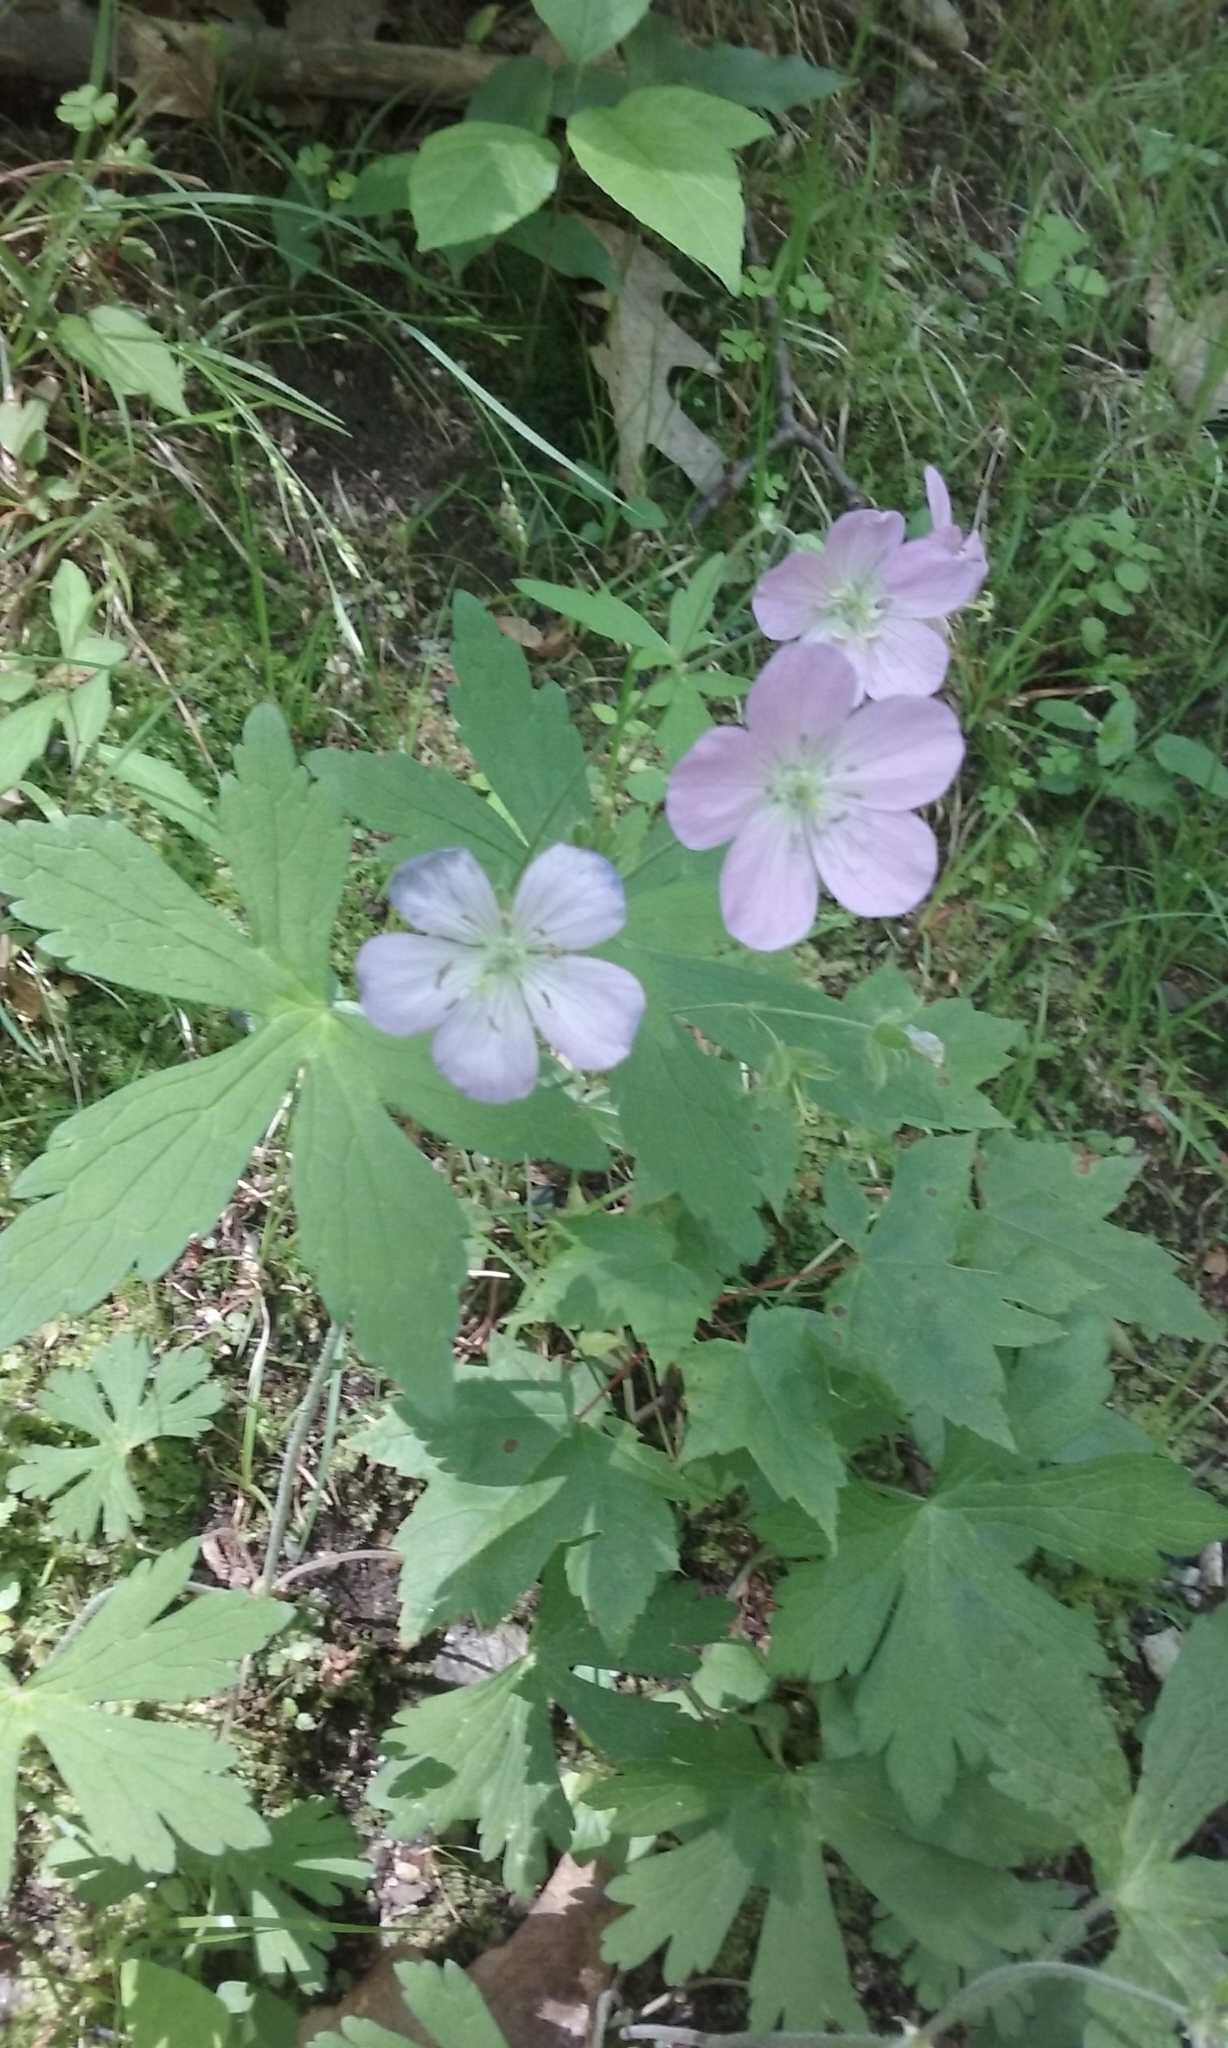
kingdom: Plantae
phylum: Tracheophyta
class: Magnoliopsida
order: Geraniales
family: Geraniaceae
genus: Geranium
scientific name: Geranium maculatum
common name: Spotted geranium
